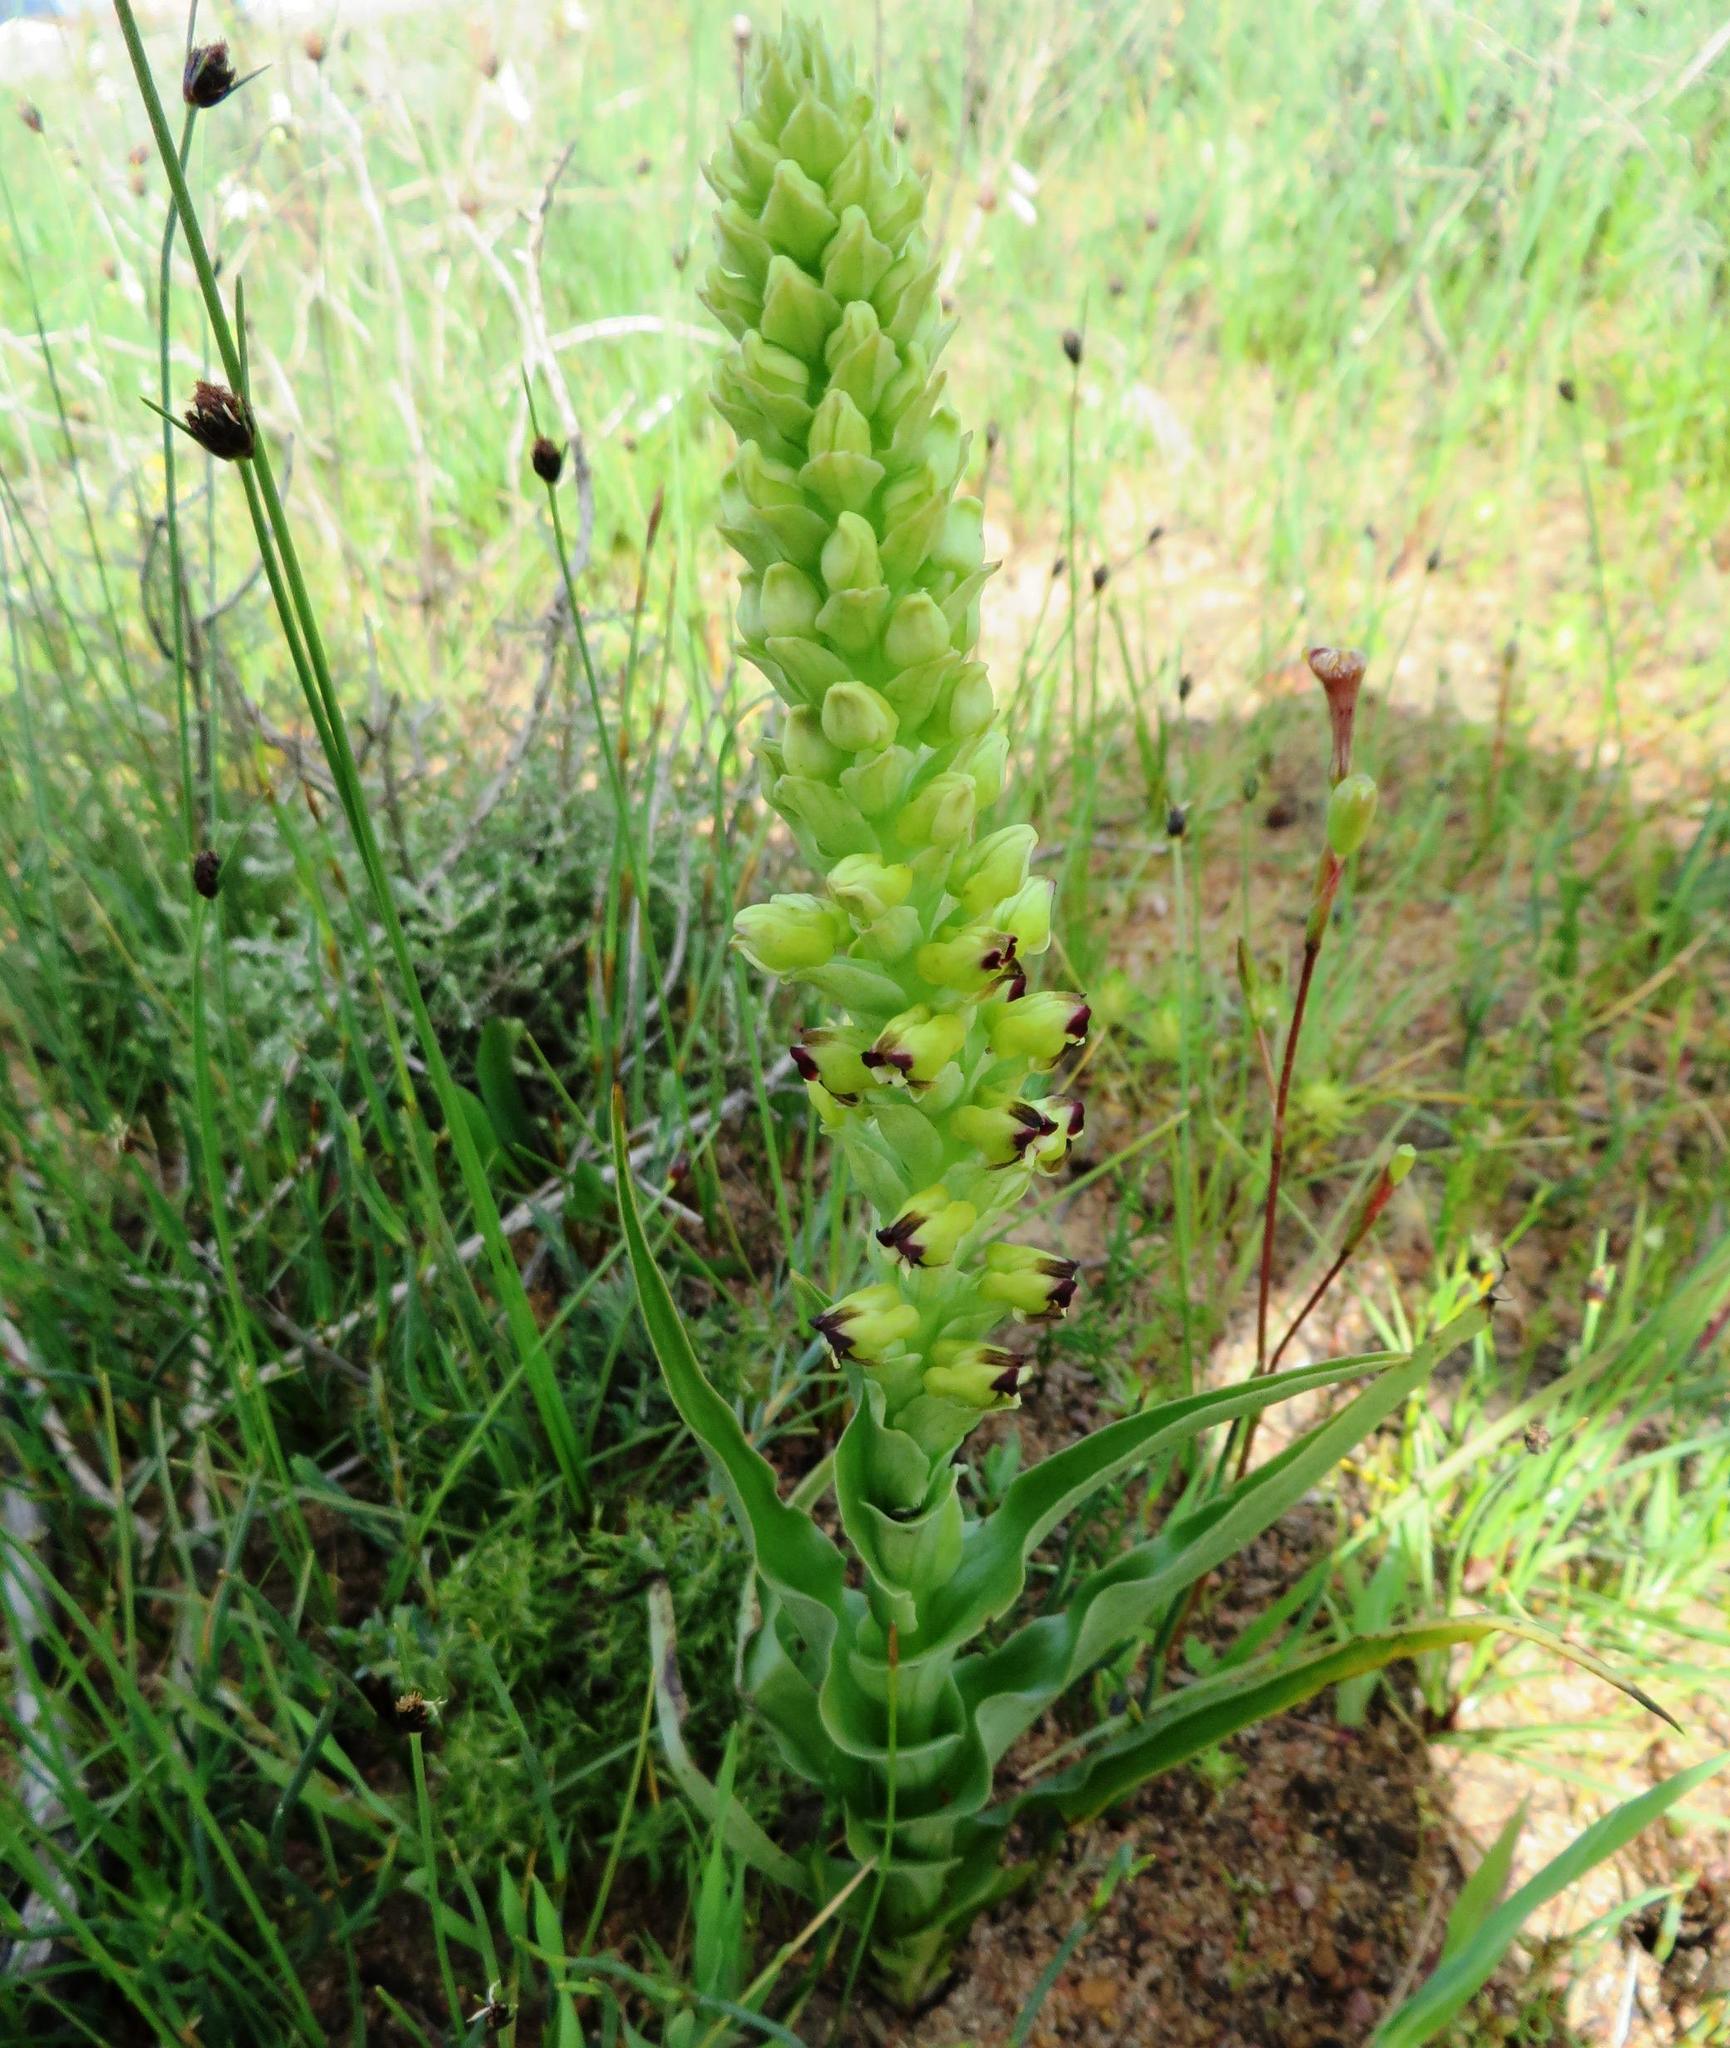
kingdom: Plantae
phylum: Tracheophyta
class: Liliopsida
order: Asparagales
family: Orchidaceae
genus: Corycium
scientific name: Corycium orobanchoides
